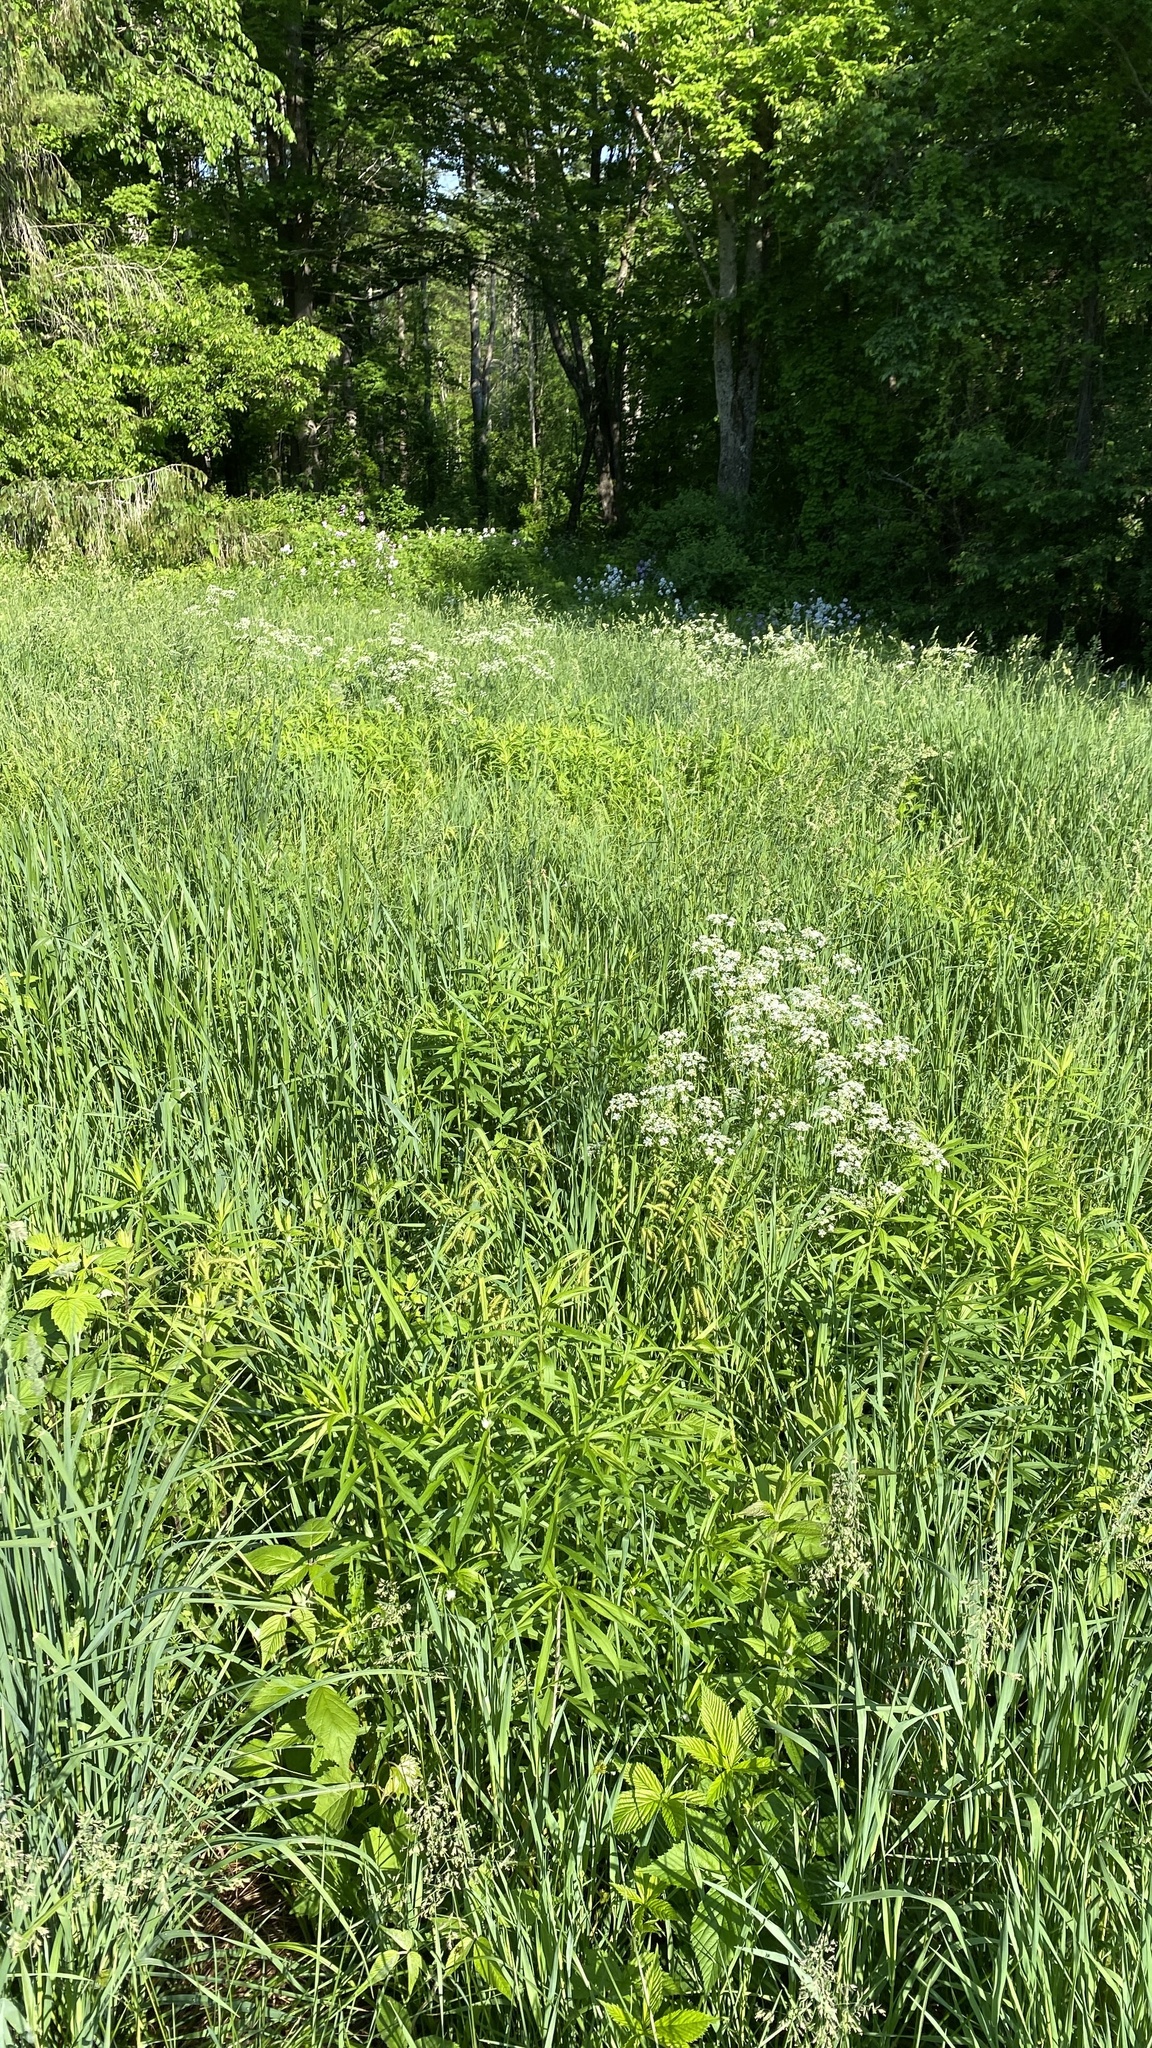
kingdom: Plantae
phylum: Tracheophyta
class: Magnoliopsida
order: Apiales
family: Apiaceae
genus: Anthriscus
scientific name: Anthriscus sylvestris
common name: Cow parsley
